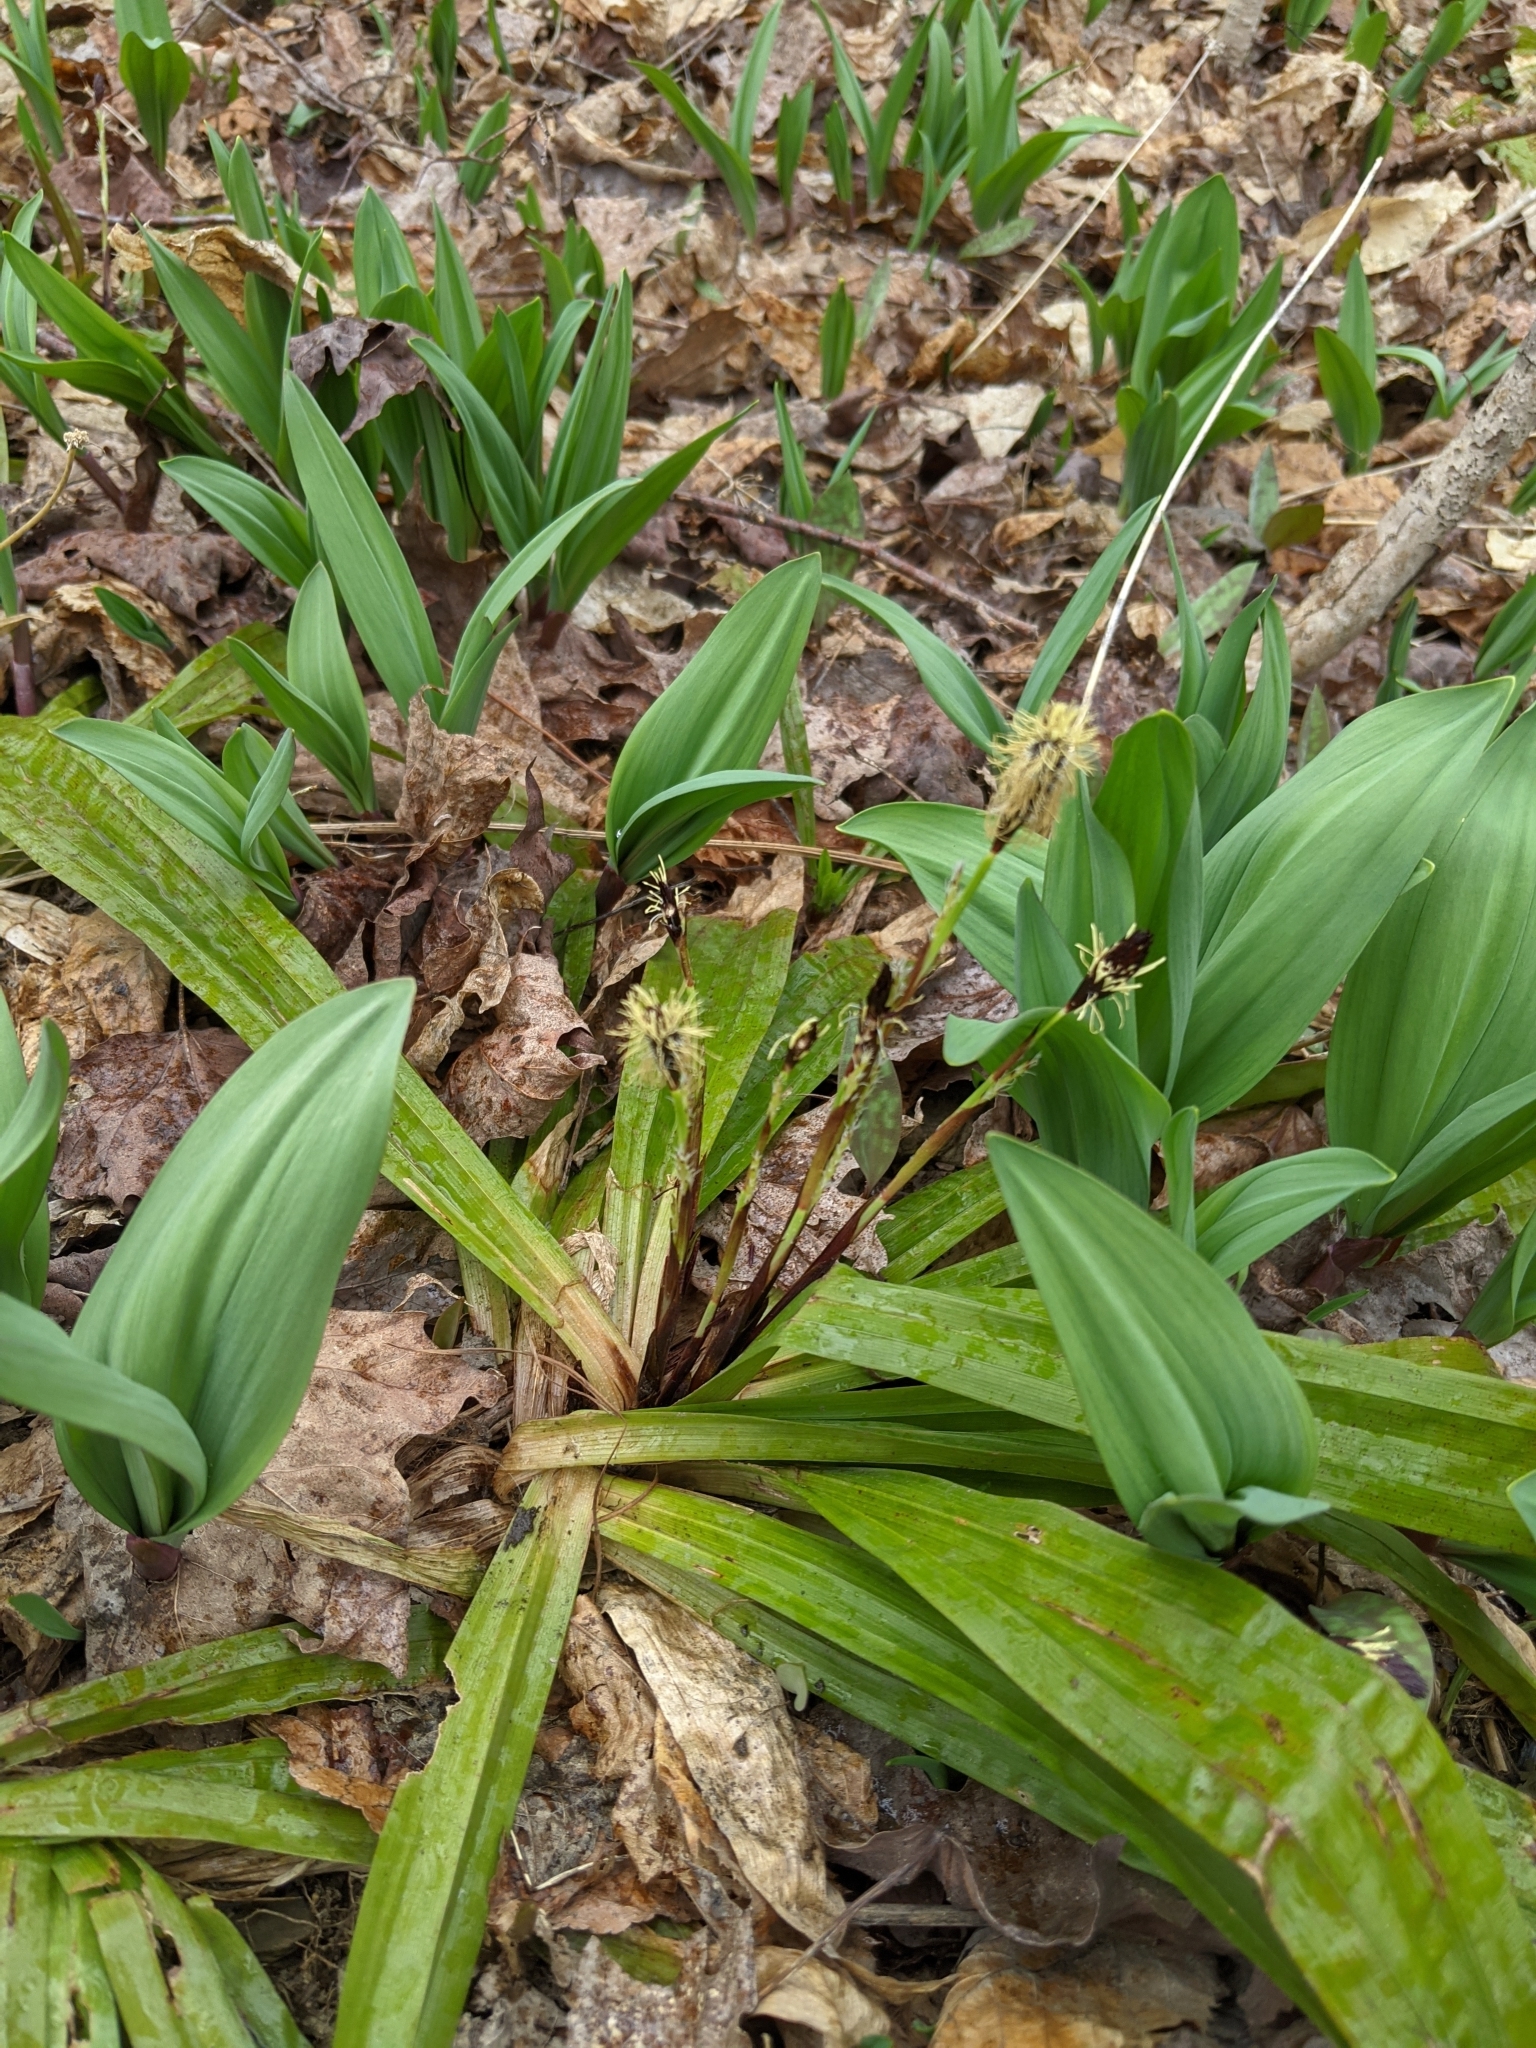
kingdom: Plantae
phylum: Tracheophyta
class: Liliopsida
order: Poales
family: Cyperaceae
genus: Carex
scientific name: Carex plantaginea
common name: Plantain-leaved sedge
